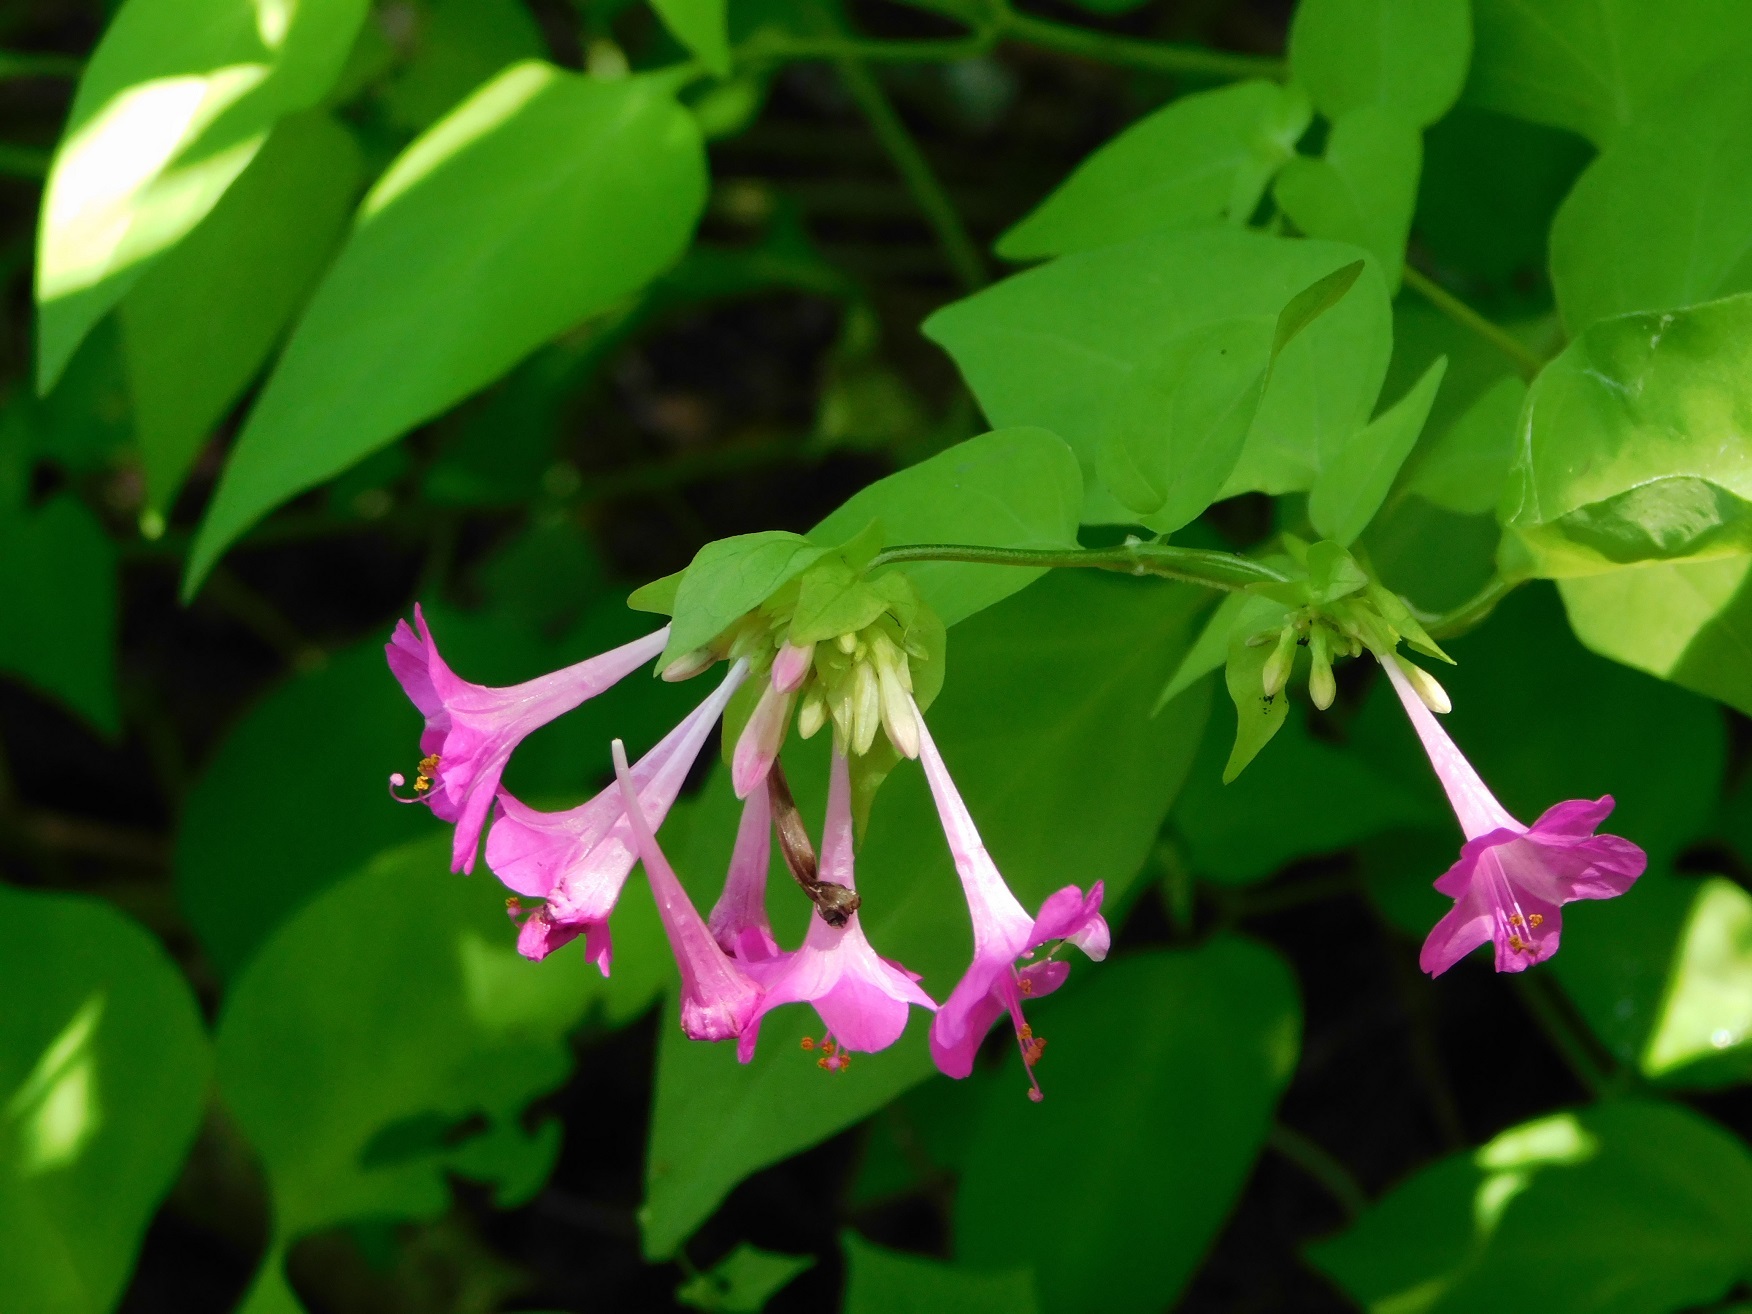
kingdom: Plantae
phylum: Tracheophyta
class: Magnoliopsida
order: Caryophyllales
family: Nyctaginaceae
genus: Mirabilis
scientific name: Mirabilis sanguinea
